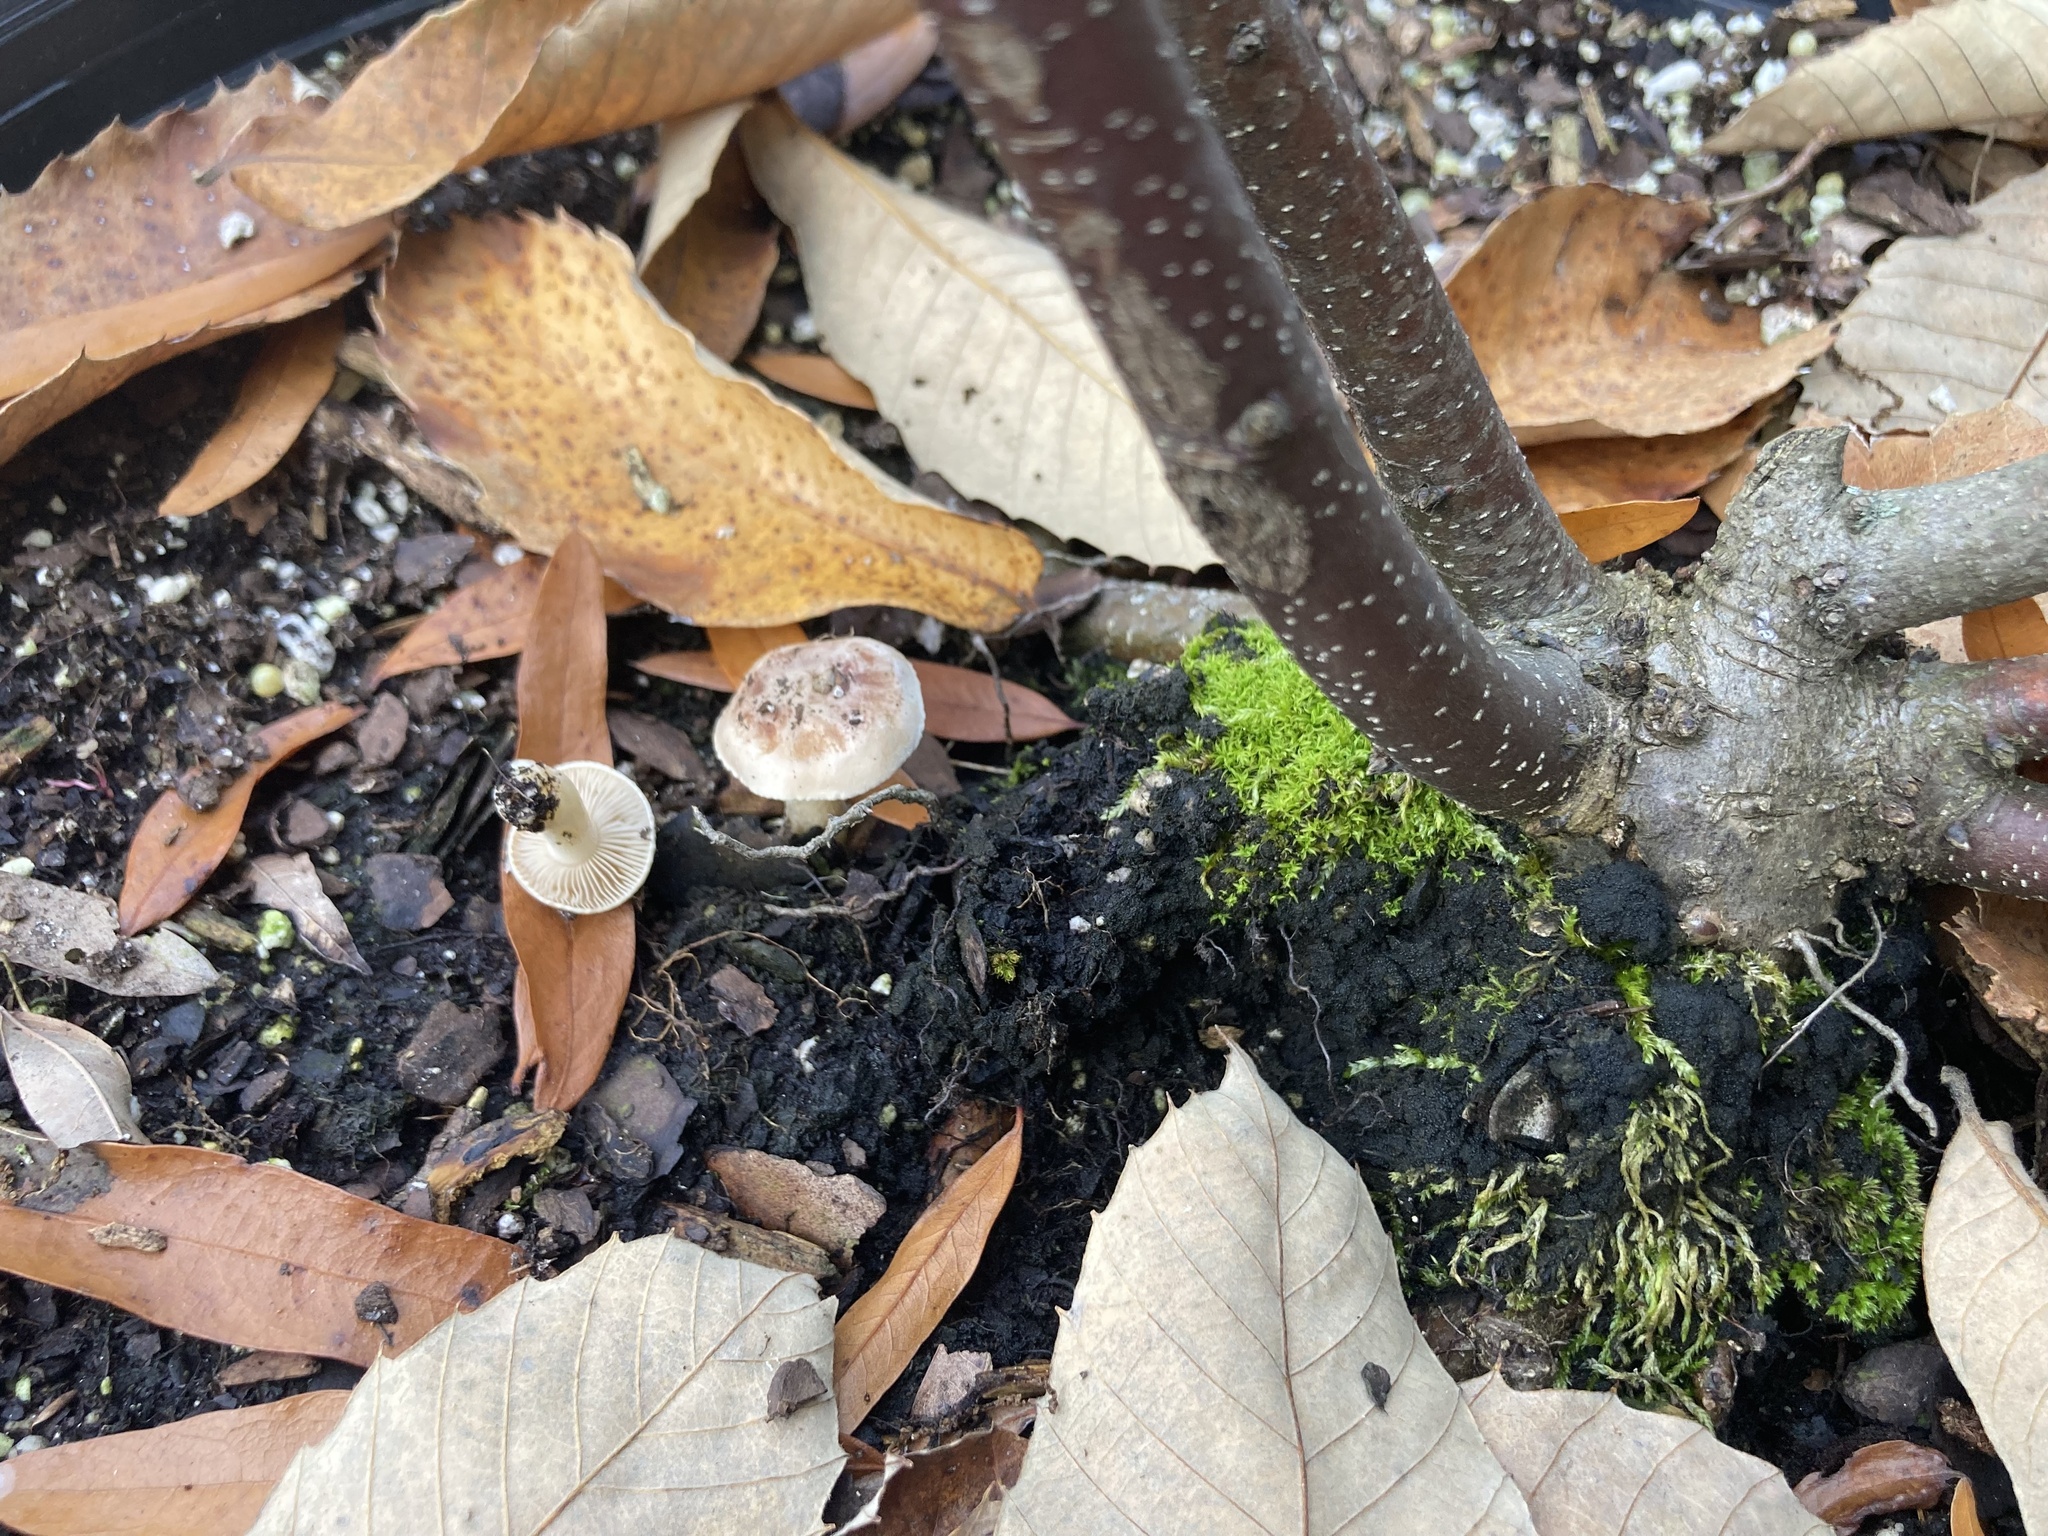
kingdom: Fungi
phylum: Basidiomycota
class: Agaricomycetes
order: Agaricales
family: Hymenogastraceae
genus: Hebeloma
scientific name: Hebeloma hiemale
